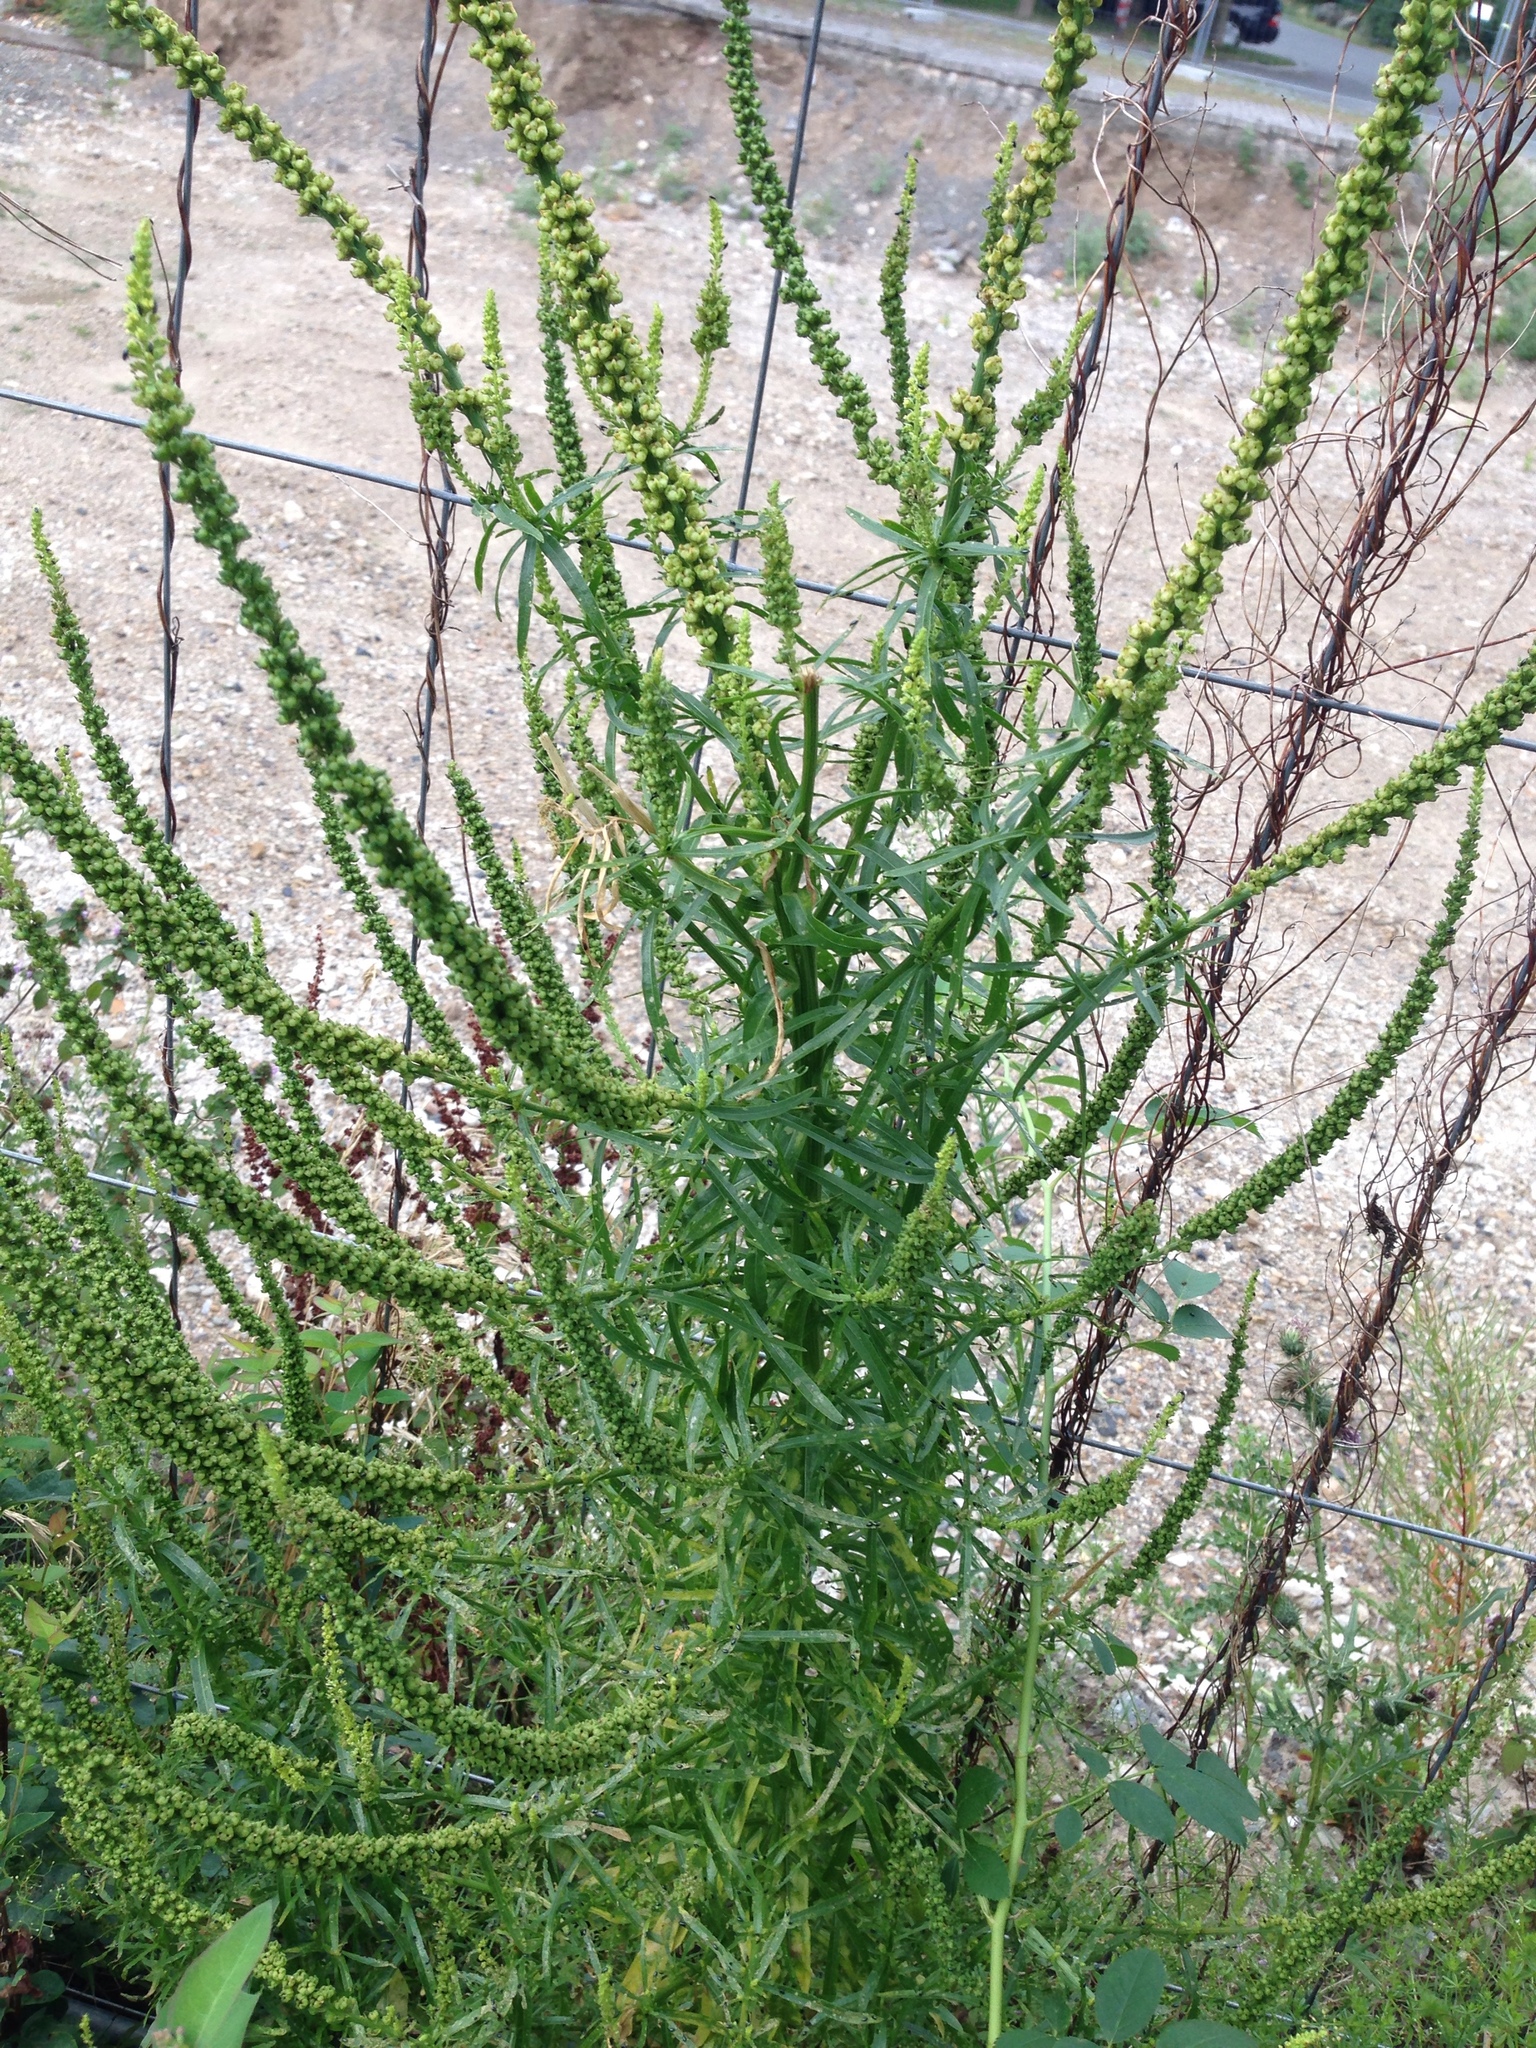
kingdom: Plantae
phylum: Tracheophyta
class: Magnoliopsida
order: Brassicales
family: Resedaceae
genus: Reseda
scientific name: Reseda luteola
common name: Weld
